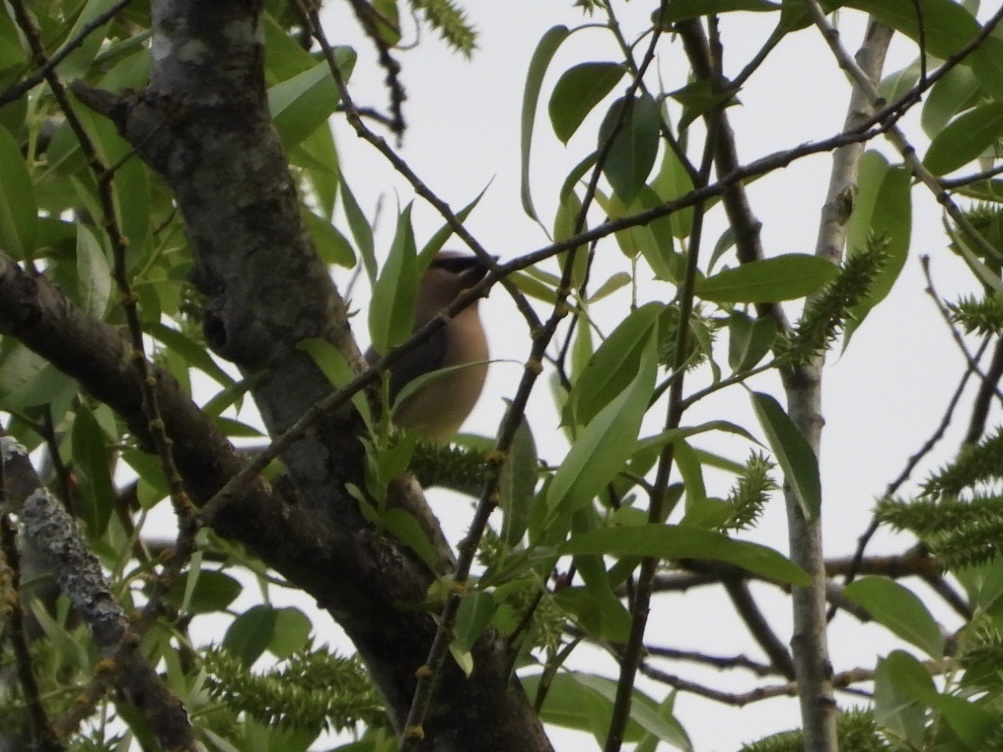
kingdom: Animalia
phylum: Chordata
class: Aves
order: Passeriformes
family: Bombycillidae
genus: Bombycilla
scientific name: Bombycilla cedrorum
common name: Cedar waxwing
